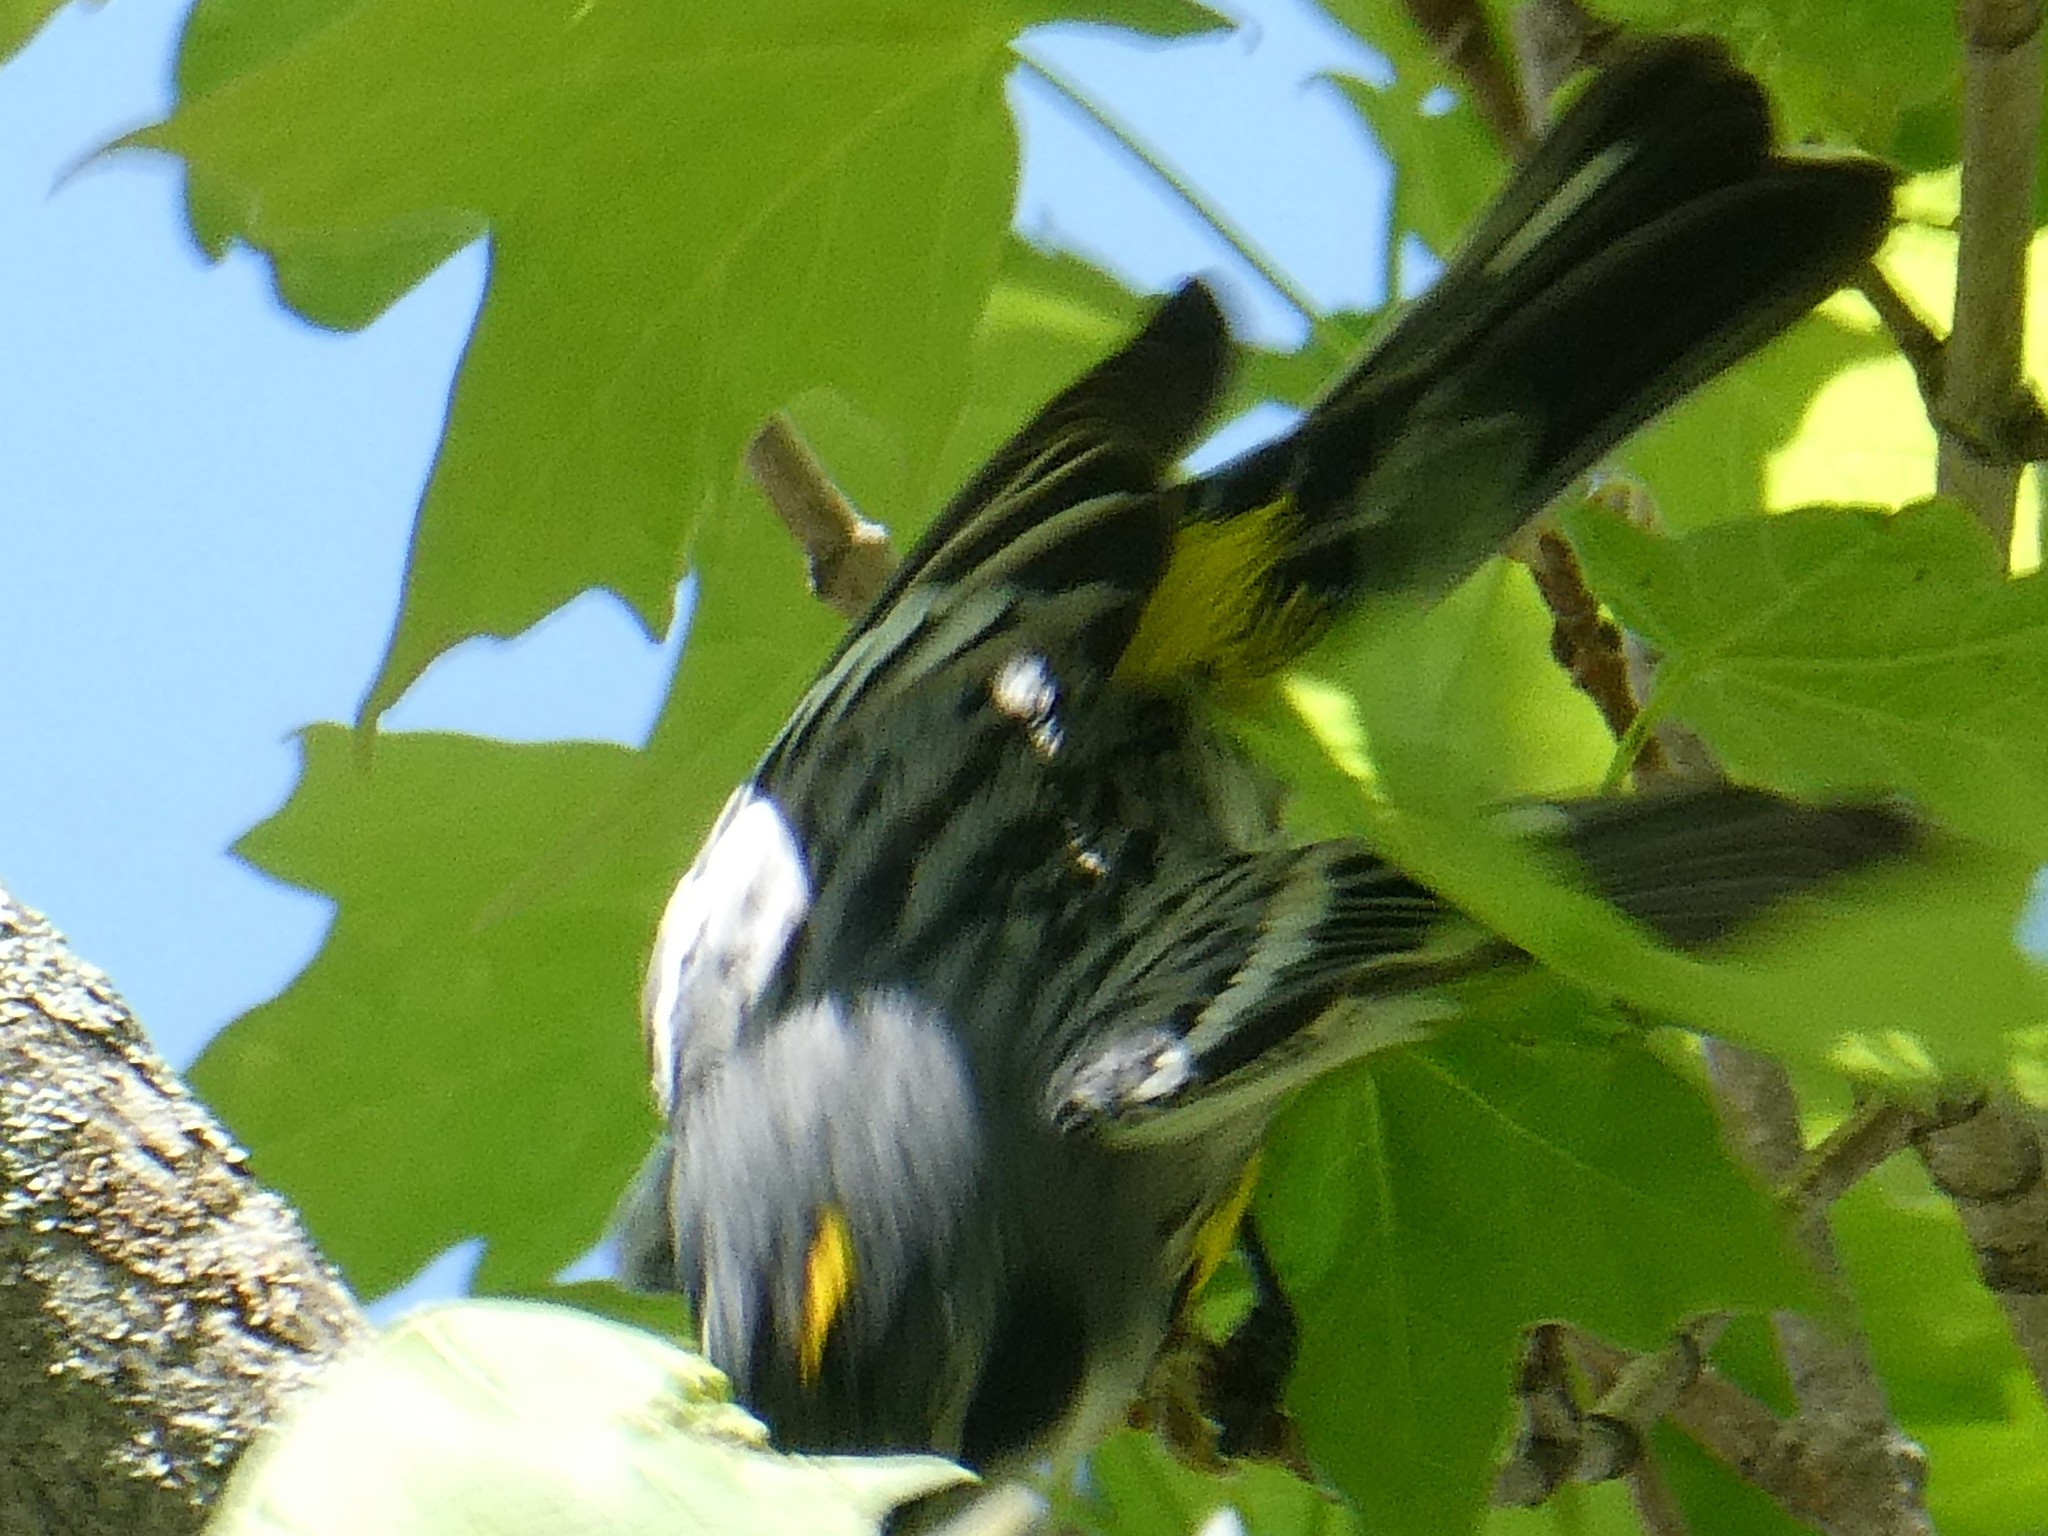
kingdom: Animalia
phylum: Chordata
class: Aves
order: Passeriformes
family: Parulidae
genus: Setophaga
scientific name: Setophaga coronata
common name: Myrtle warbler
